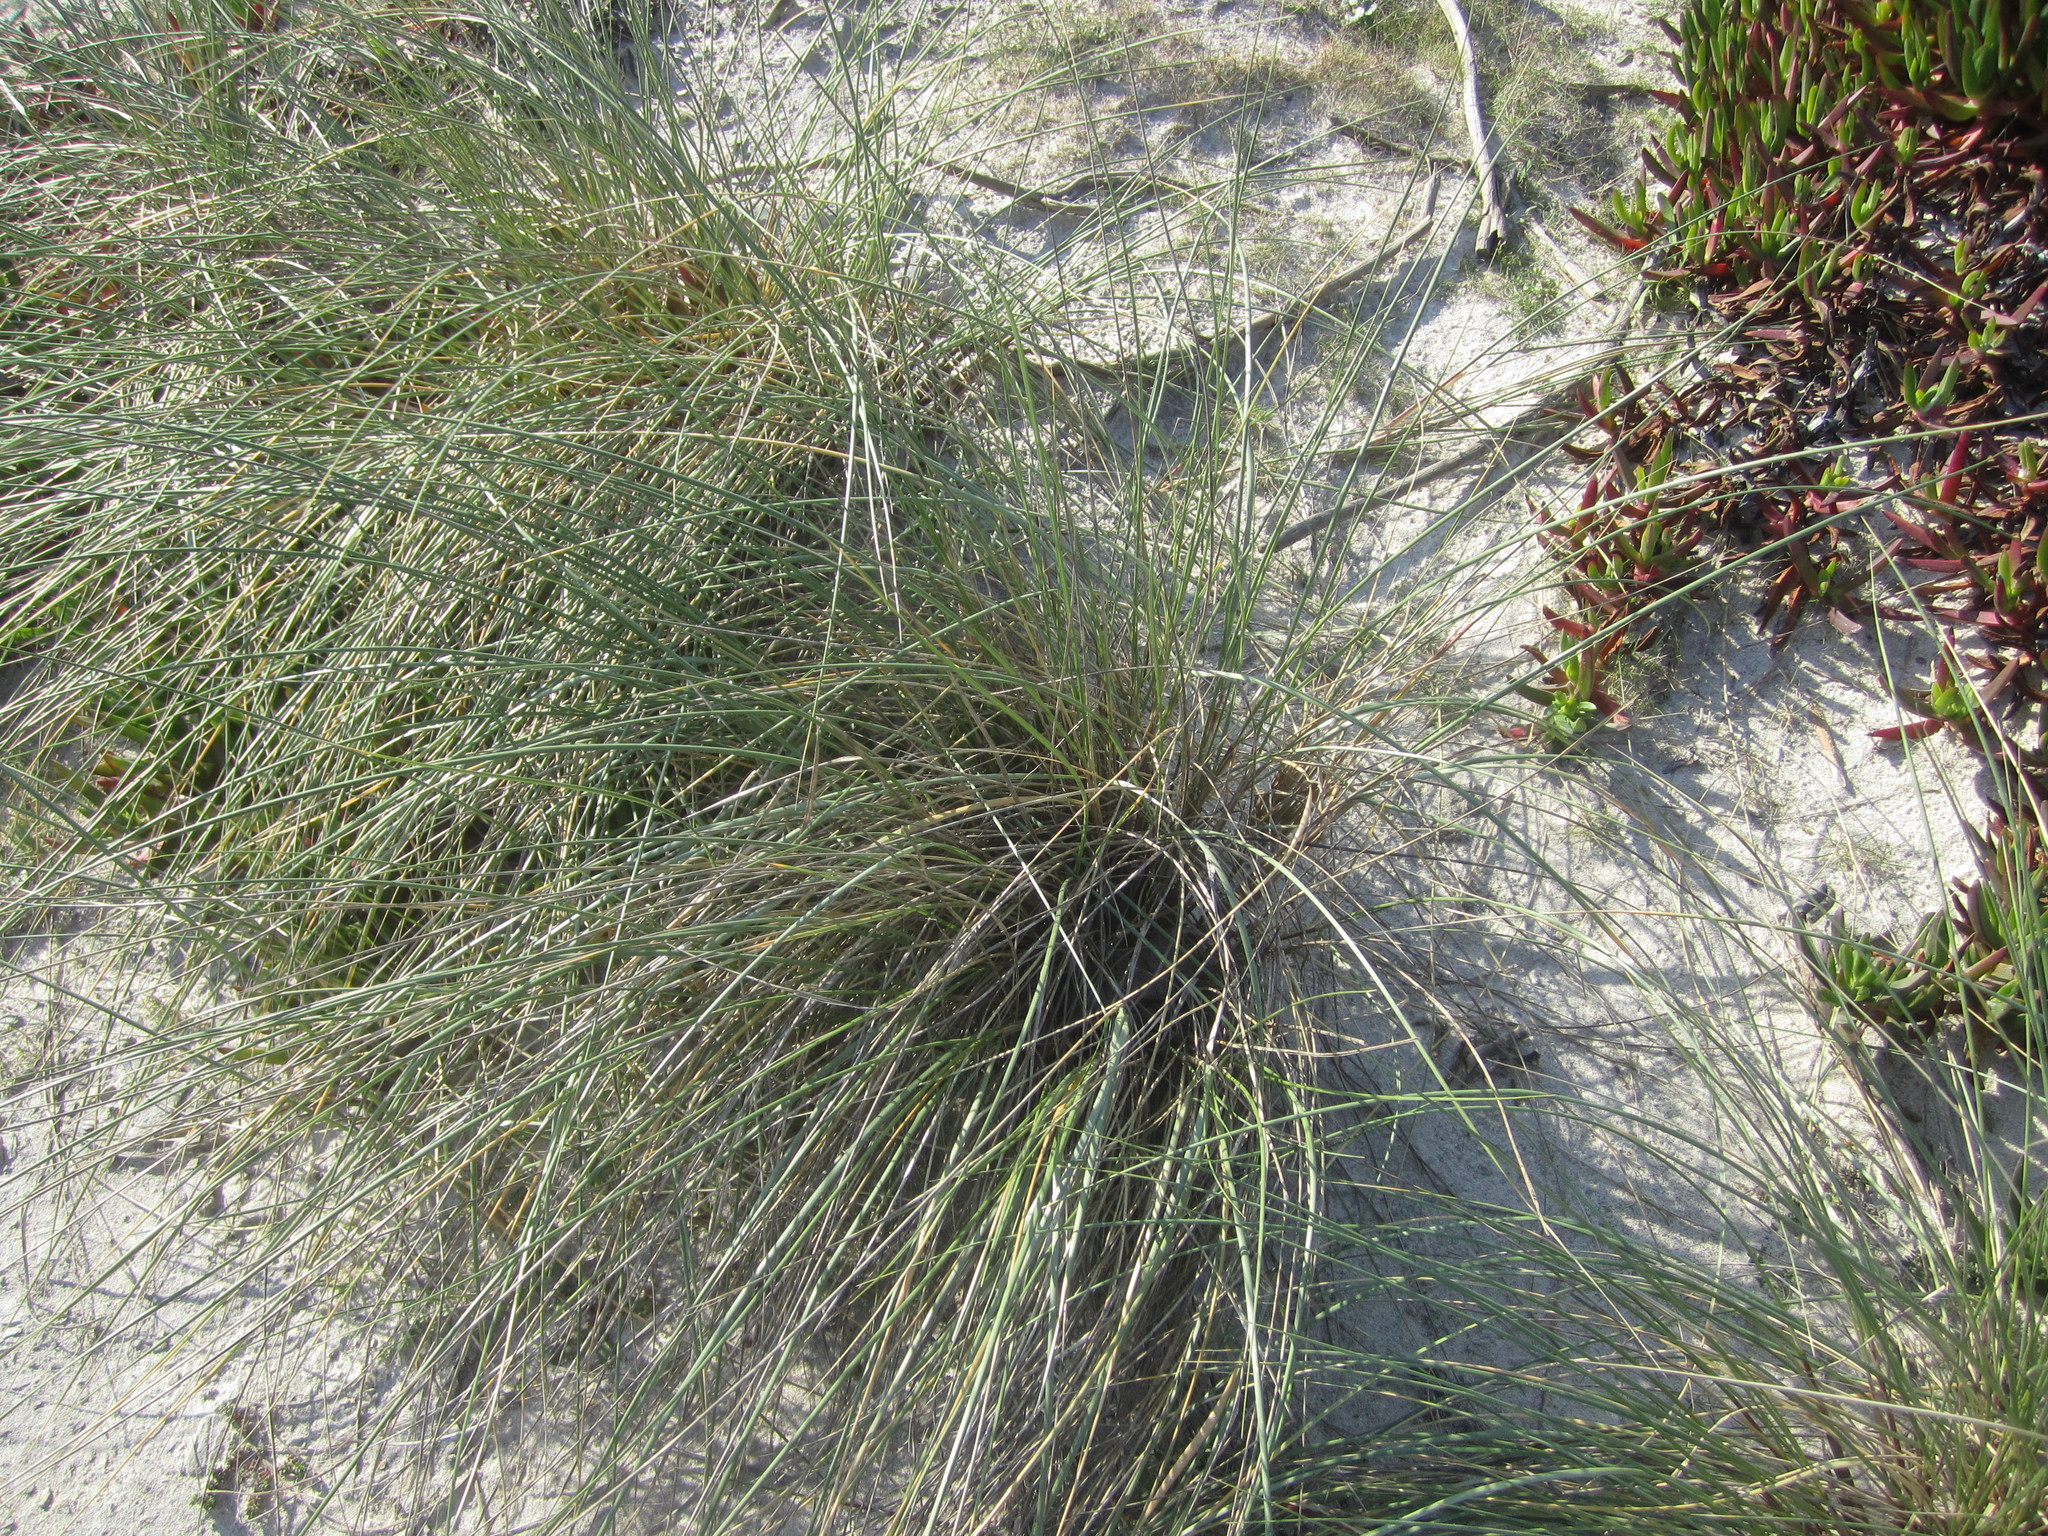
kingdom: Plantae
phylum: Tracheophyta
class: Liliopsida
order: Poales
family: Poaceae
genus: Calamagrostis
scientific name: Calamagrostis arenaria
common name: European beachgrass
